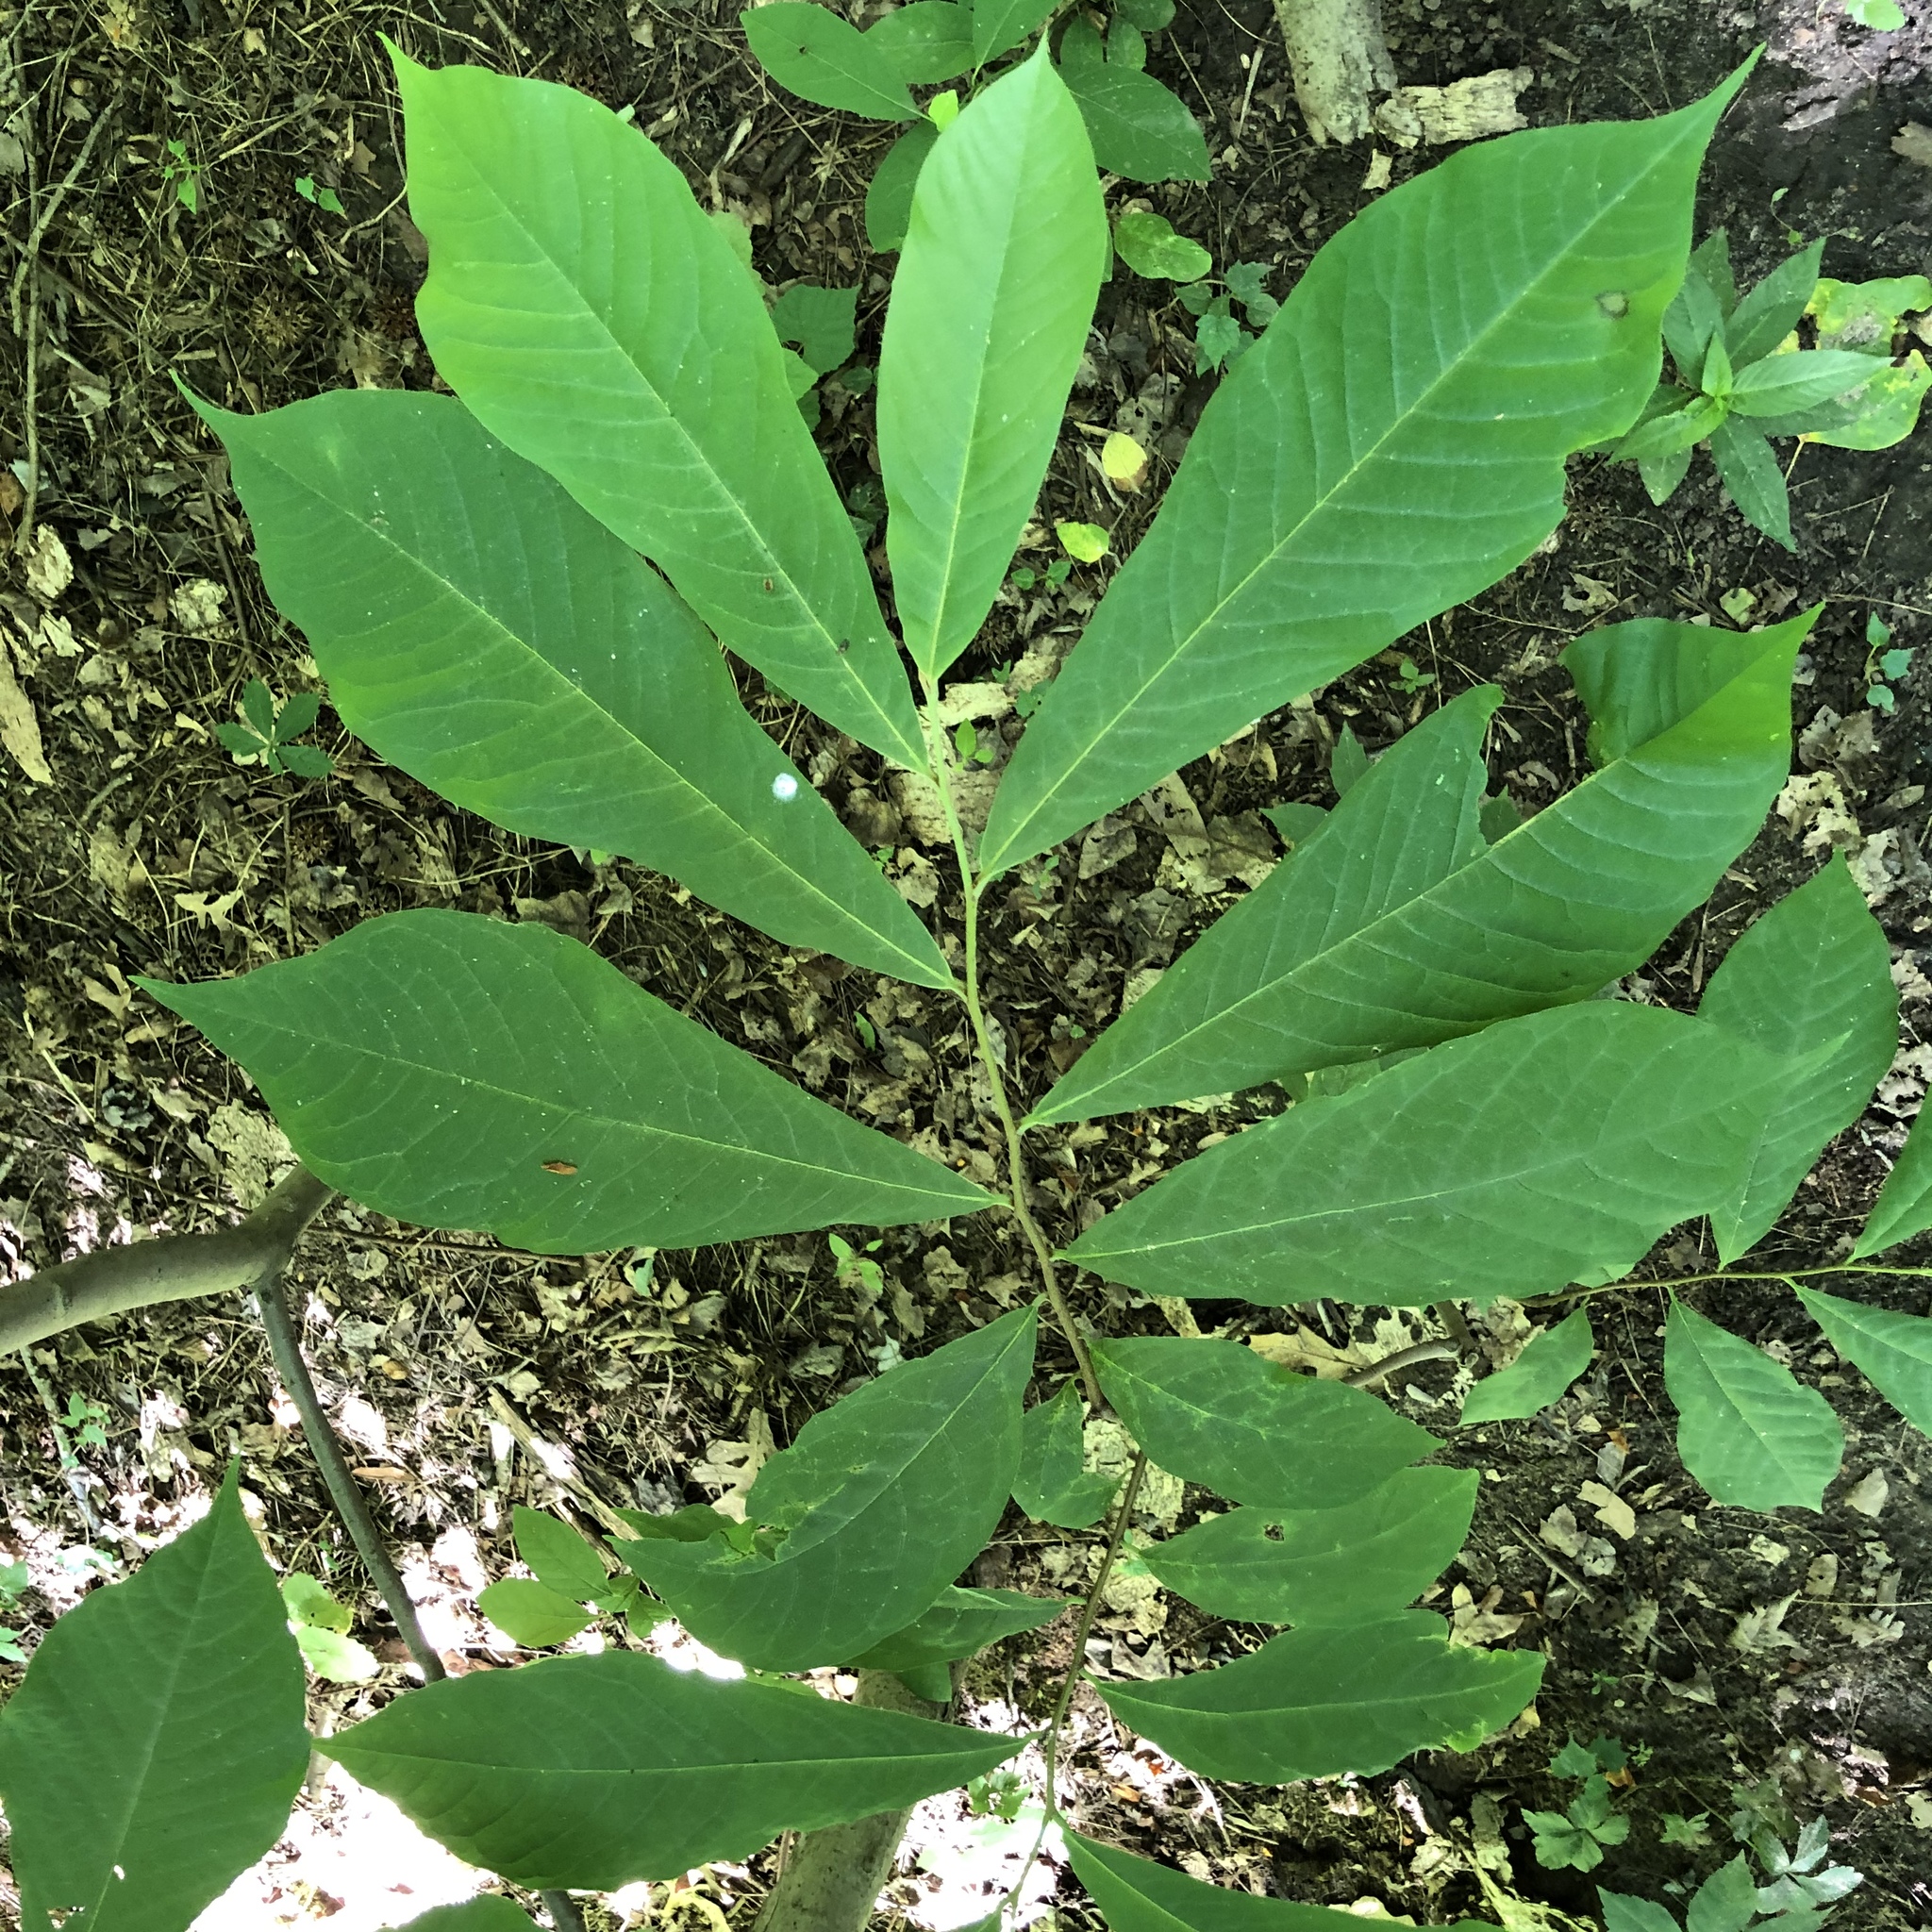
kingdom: Plantae
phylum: Tracheophyta
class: Magnoliopsida
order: Magnoliales
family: Annonaceae
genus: Asimina
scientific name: Asimina triloba
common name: Dog-banana
